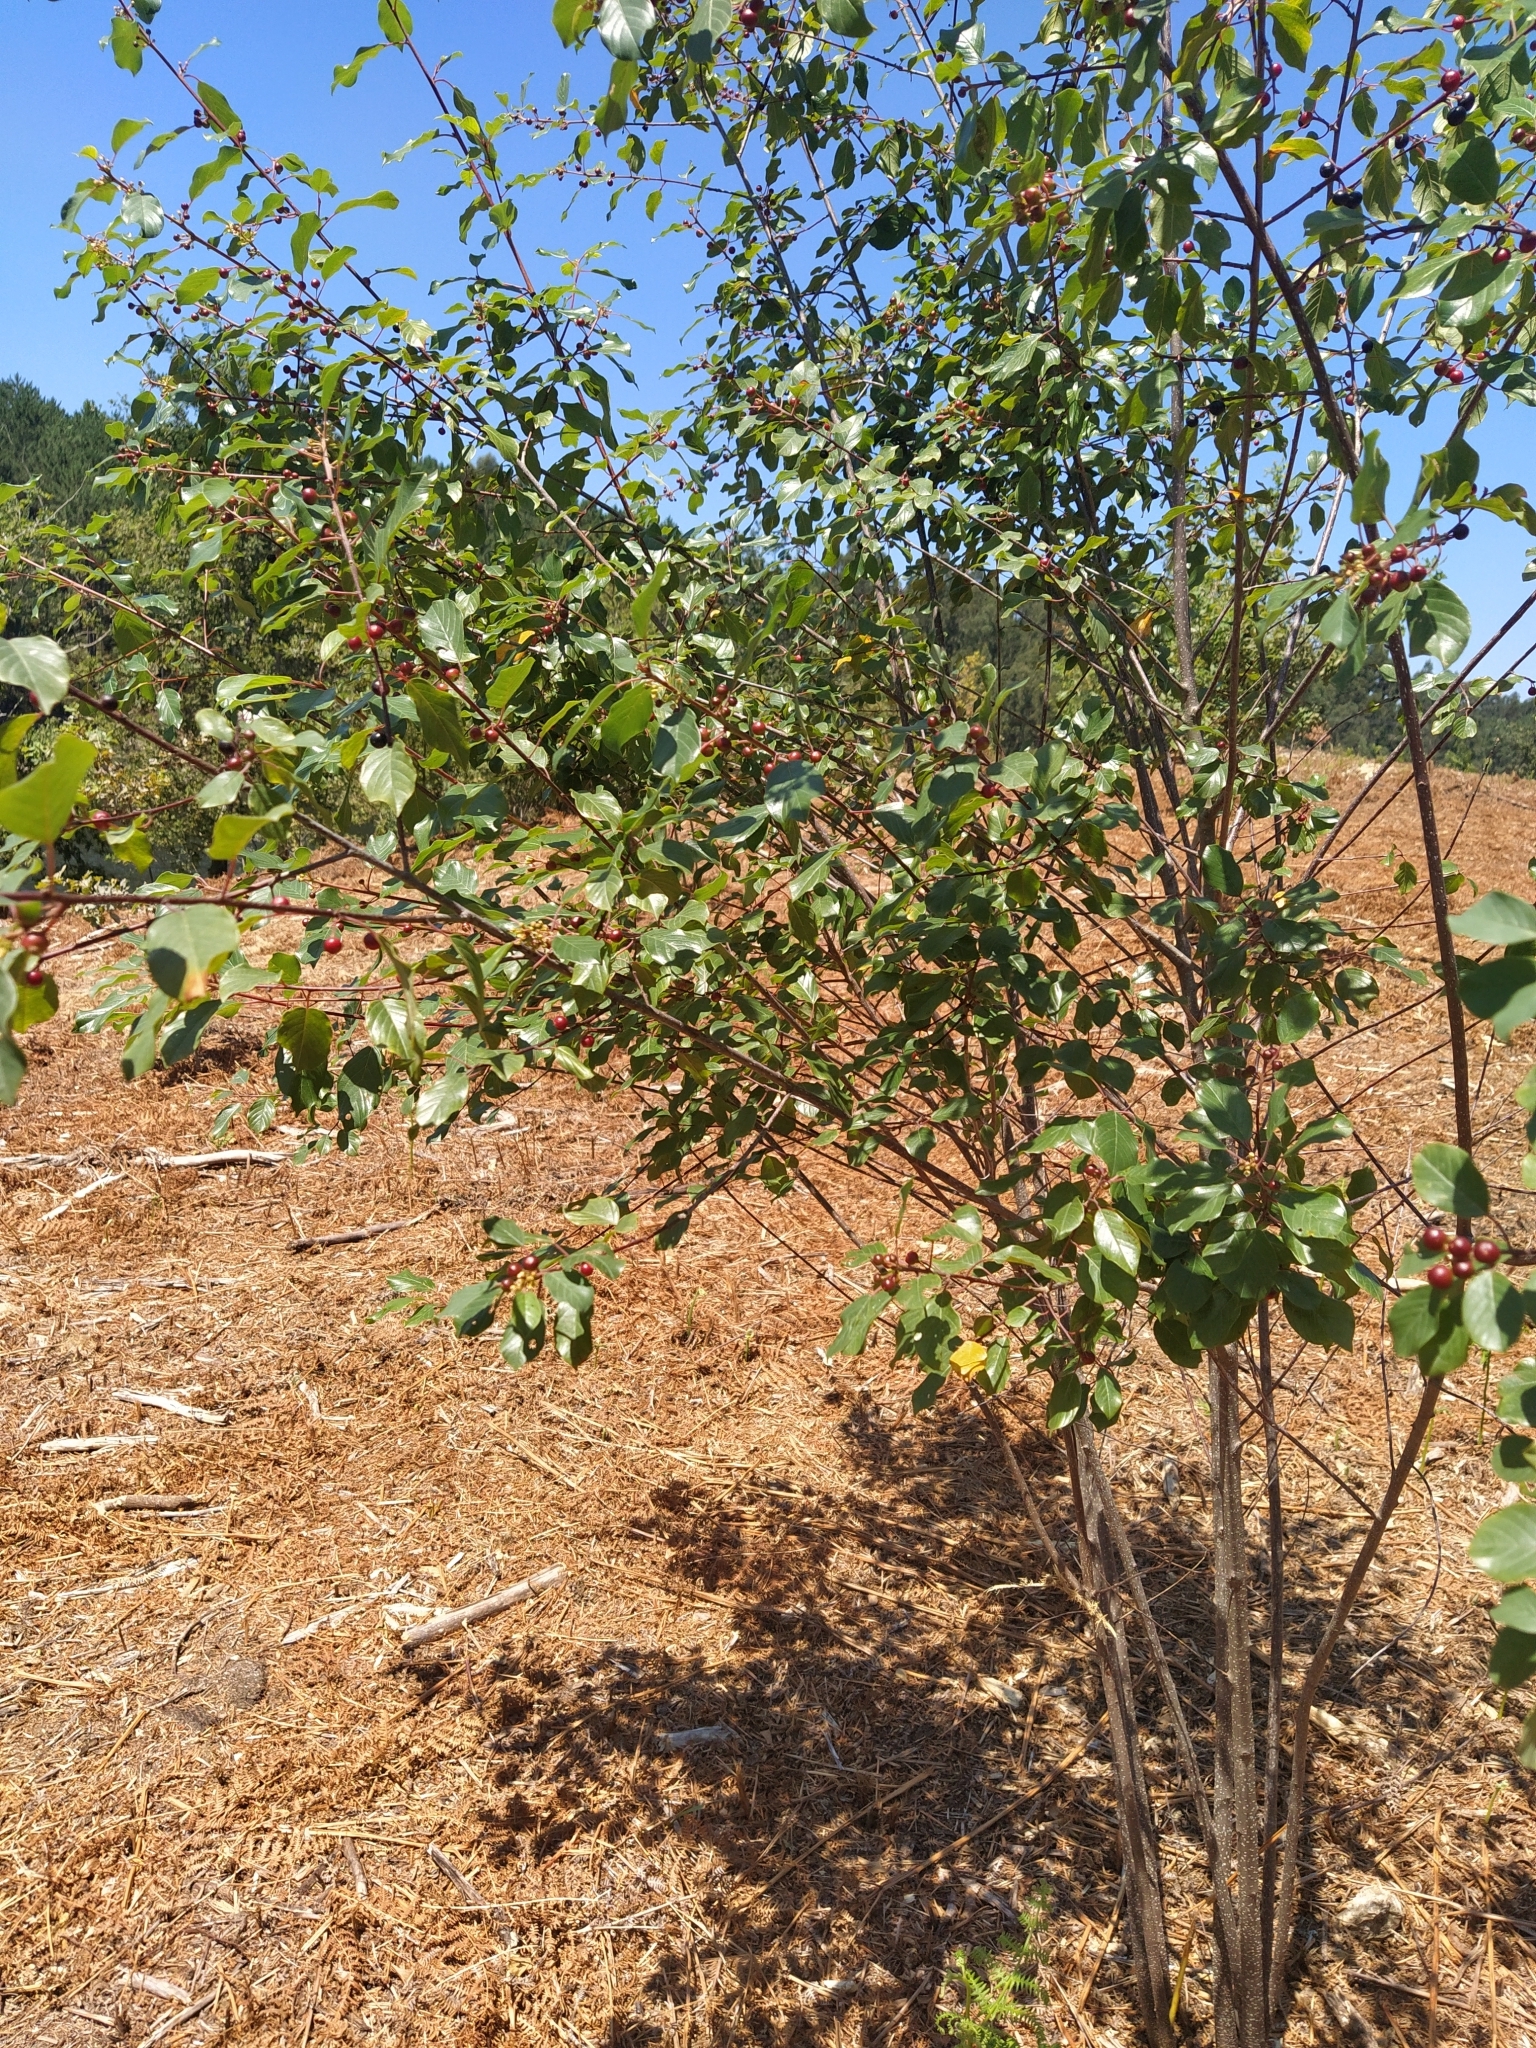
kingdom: Plantae
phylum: Tracheophyta
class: Magnoliopsida
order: Rosales
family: Rhamnaceae
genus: Frangula
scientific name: Frangula alnus
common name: Alder buckthorn
